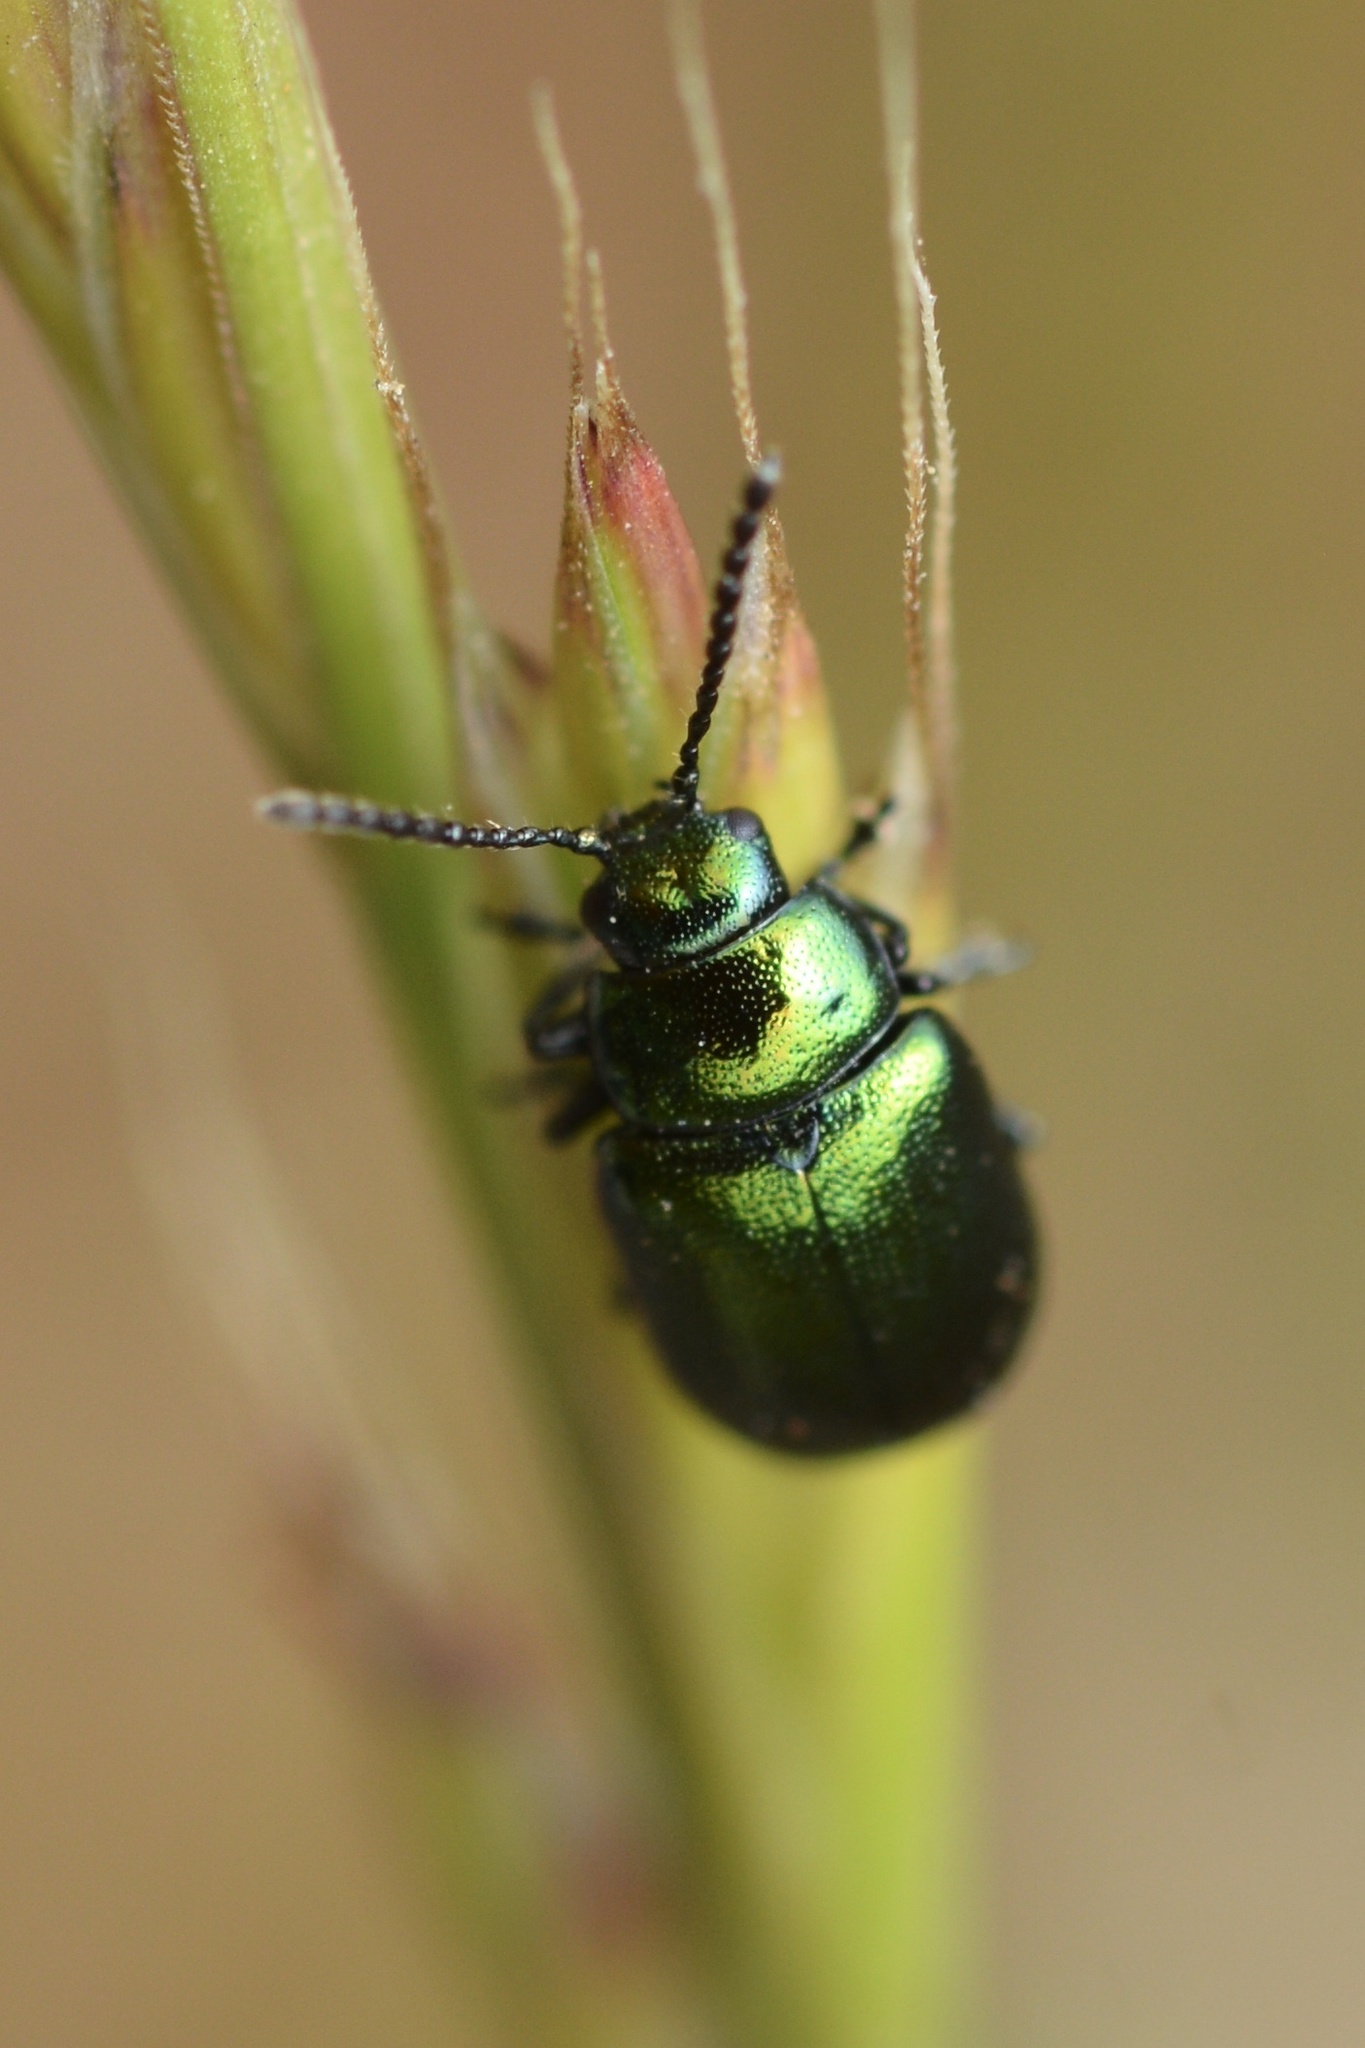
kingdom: Animalia
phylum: Arthropoda
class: Insecta
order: Coleoptera
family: Chrysomelidae
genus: Gastrophysa
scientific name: Gastrophysa cyanea
